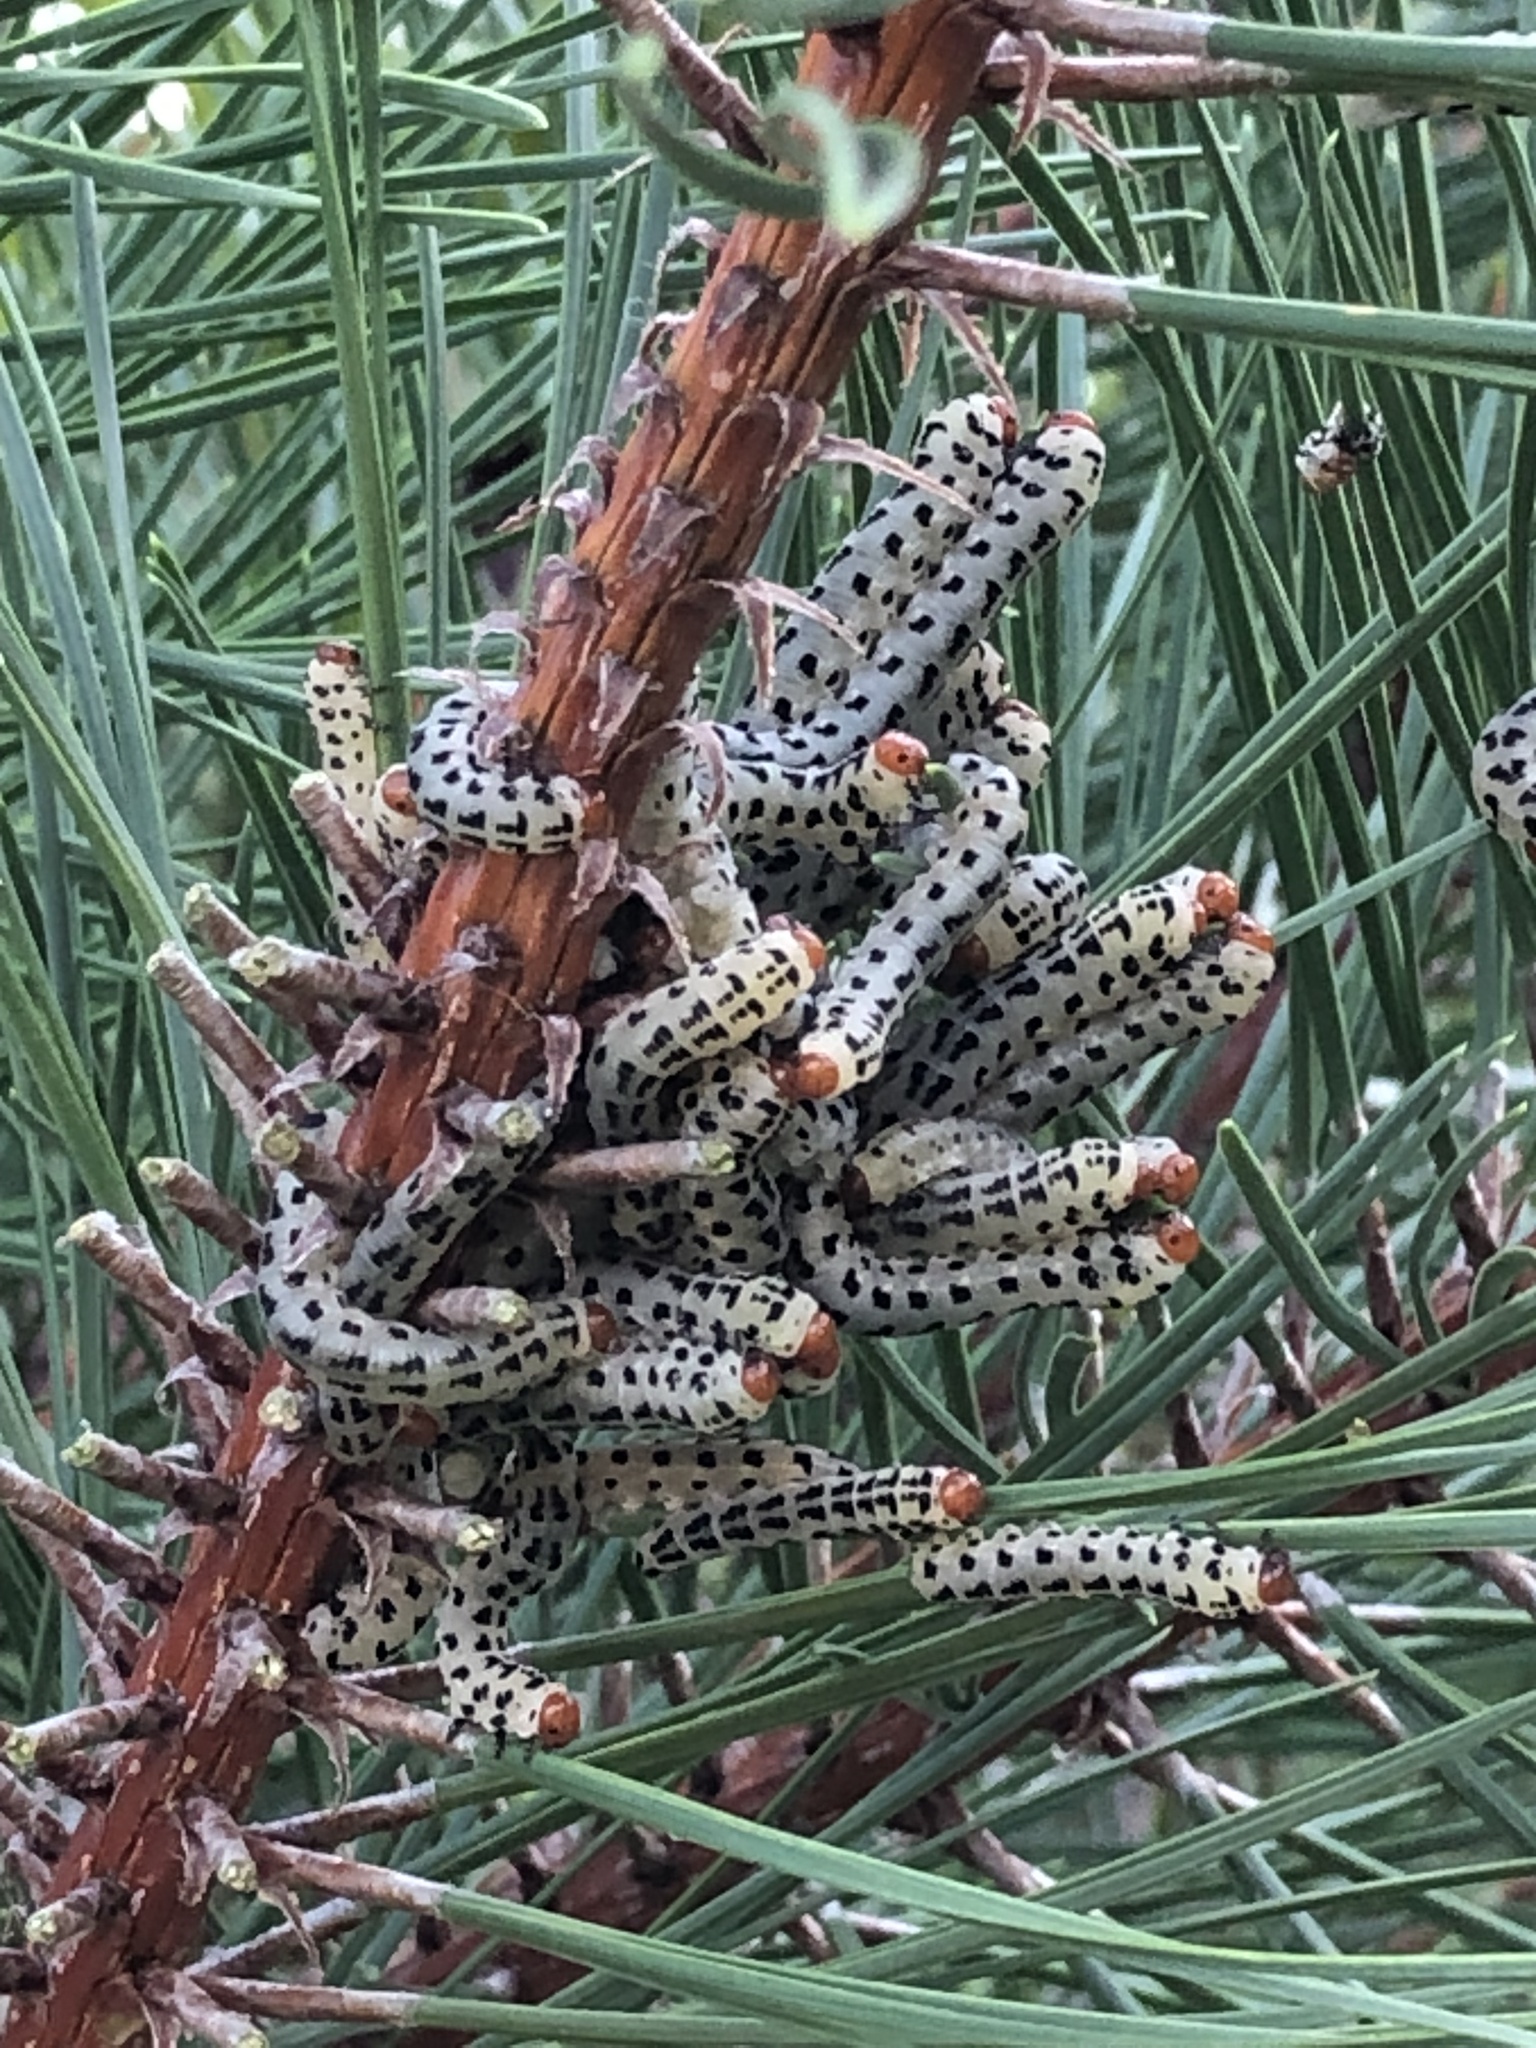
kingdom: Animalia
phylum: Arthropoda
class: Insecta
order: Hymenoptera
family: Diprionidae
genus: Neodiprion
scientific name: Neodiprion lecontei
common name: Redheaded pine sawfly
